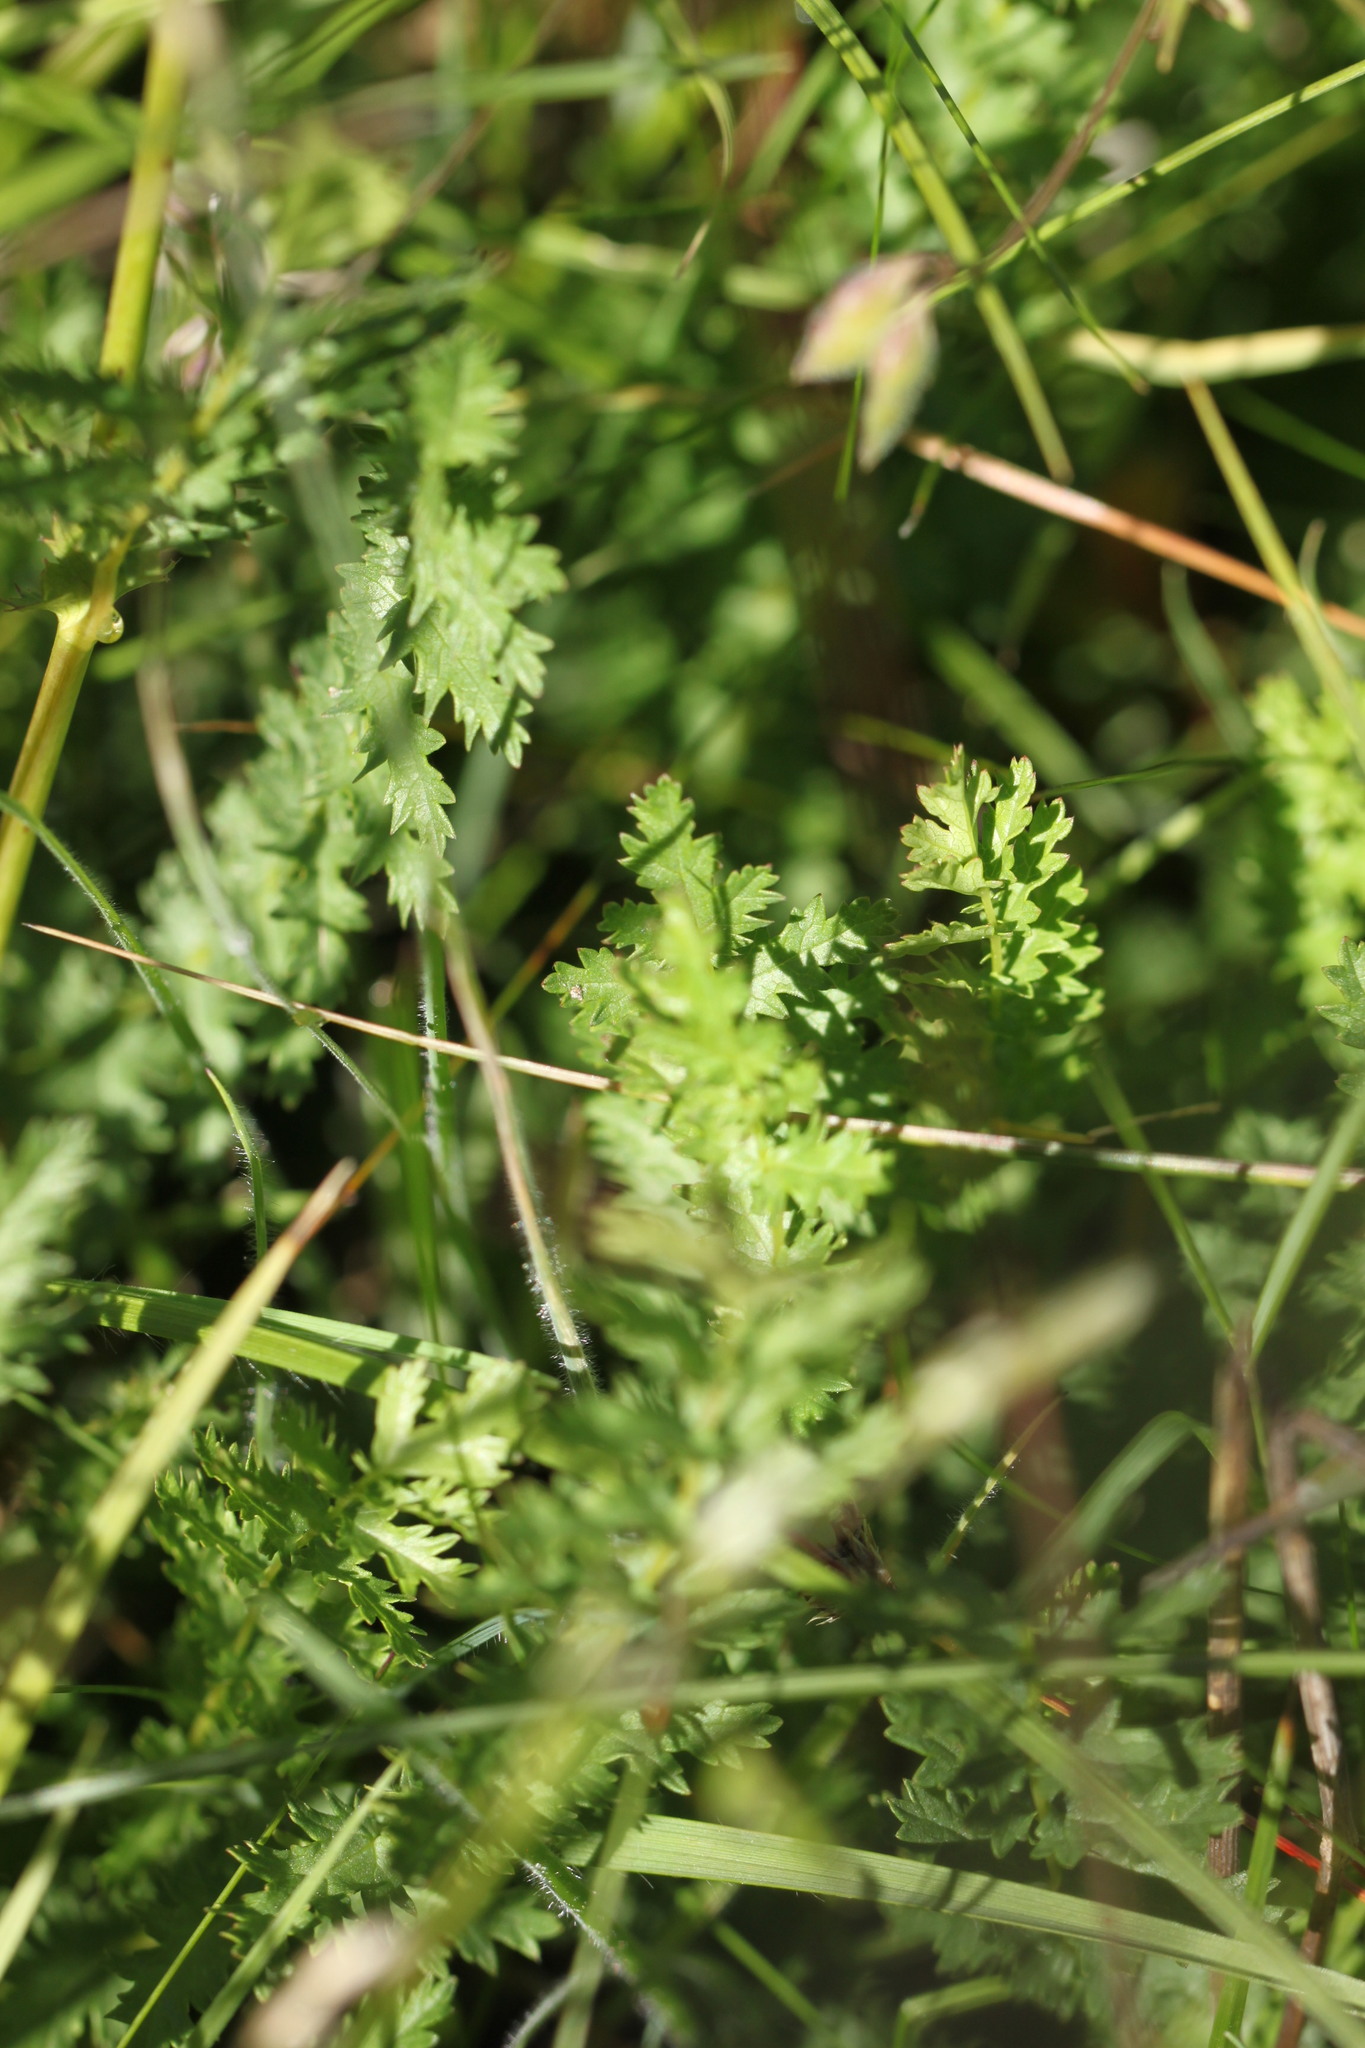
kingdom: Plantae
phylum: Tracheophyta
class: Magnoliopsida
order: Rosales
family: Rosaceae
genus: Filipendula
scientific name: Filipendula vulgaris
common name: Dropwort
